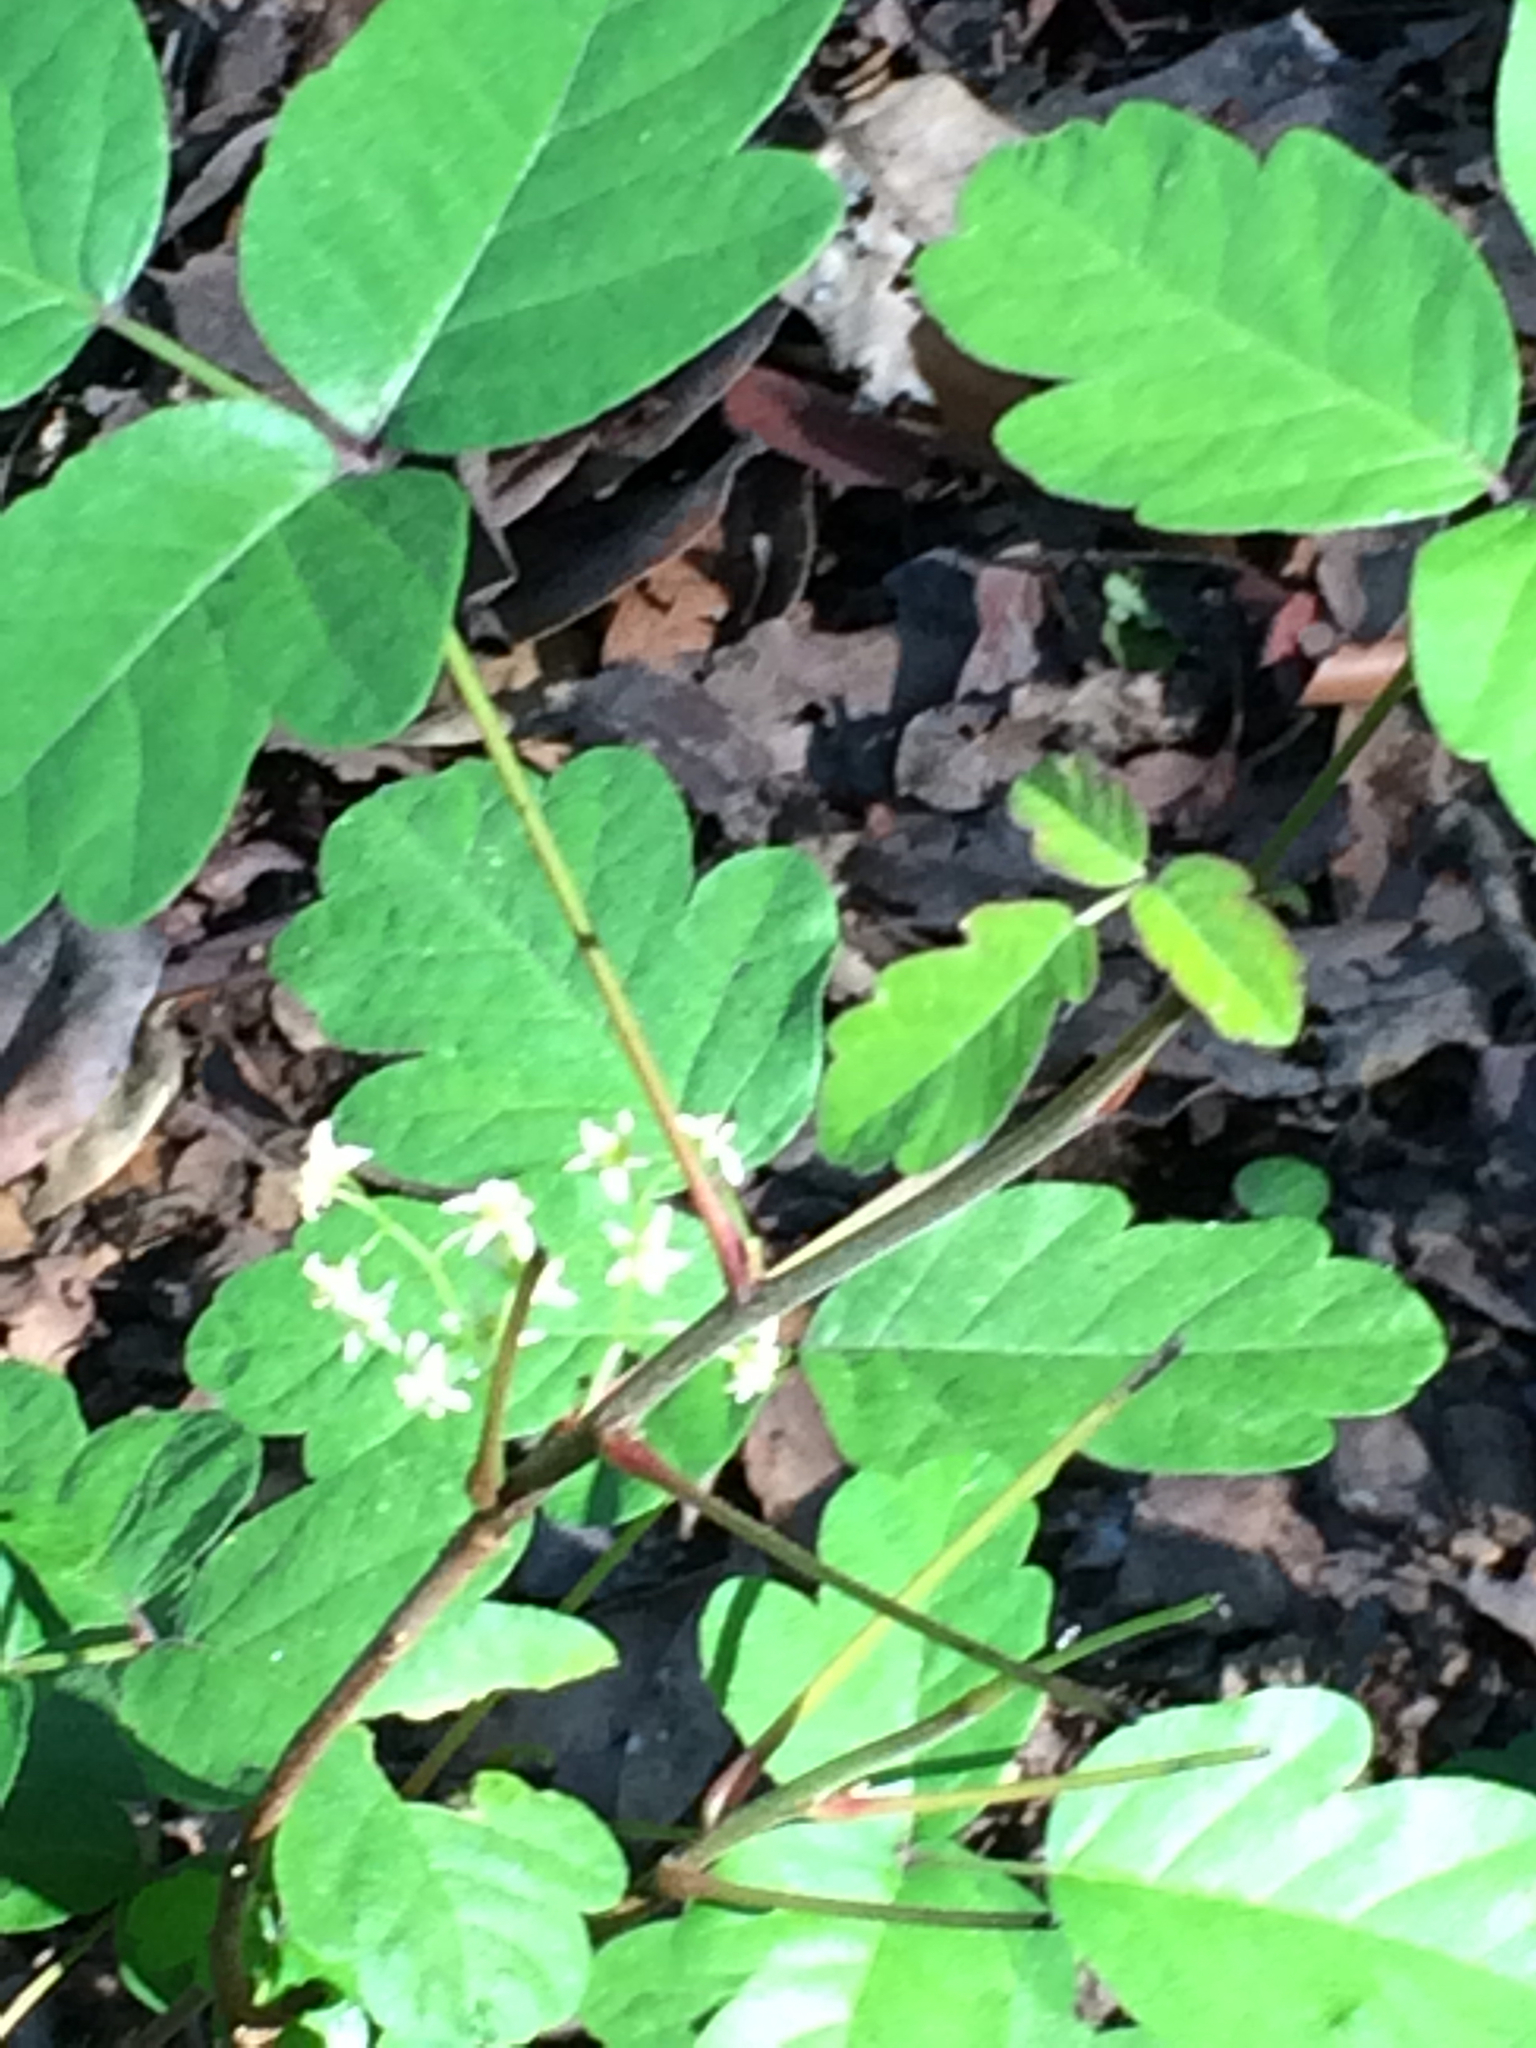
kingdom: Plantae
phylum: Tracheophyta
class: Magnoliopsida
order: Sapindales
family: Anacardiaceae
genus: Toxicodendron
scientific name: Toxicodendron diversilobum
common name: Pacific poison-oak
